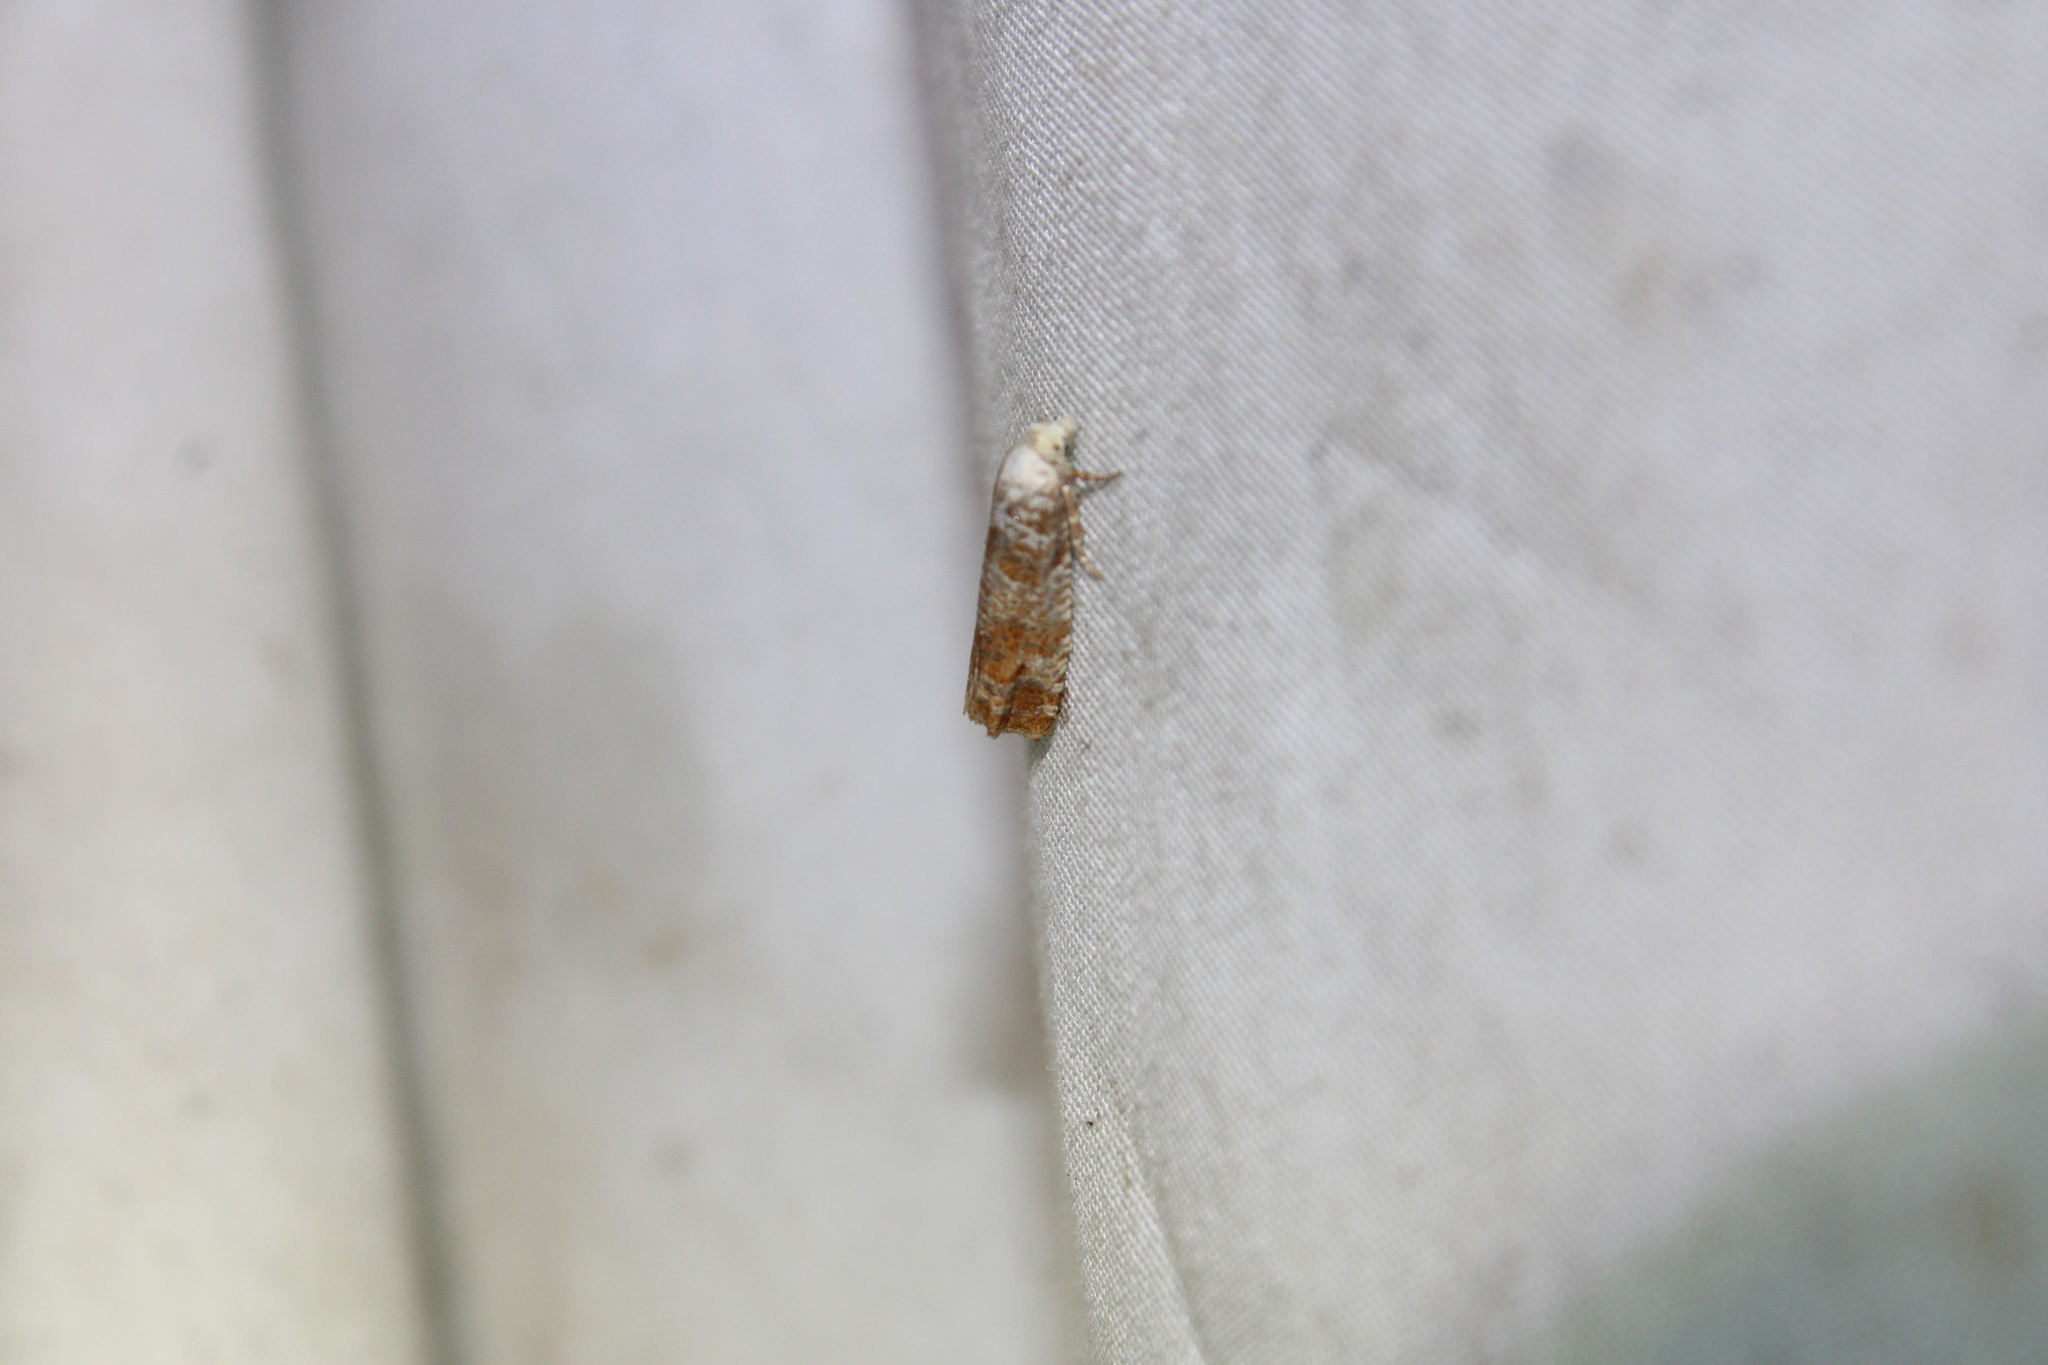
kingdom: Animalia
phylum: Arthropoda
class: Insecta
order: Lepidoptera
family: Tortricidae
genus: Rhyacionia
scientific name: Rhyacionia rigidana
